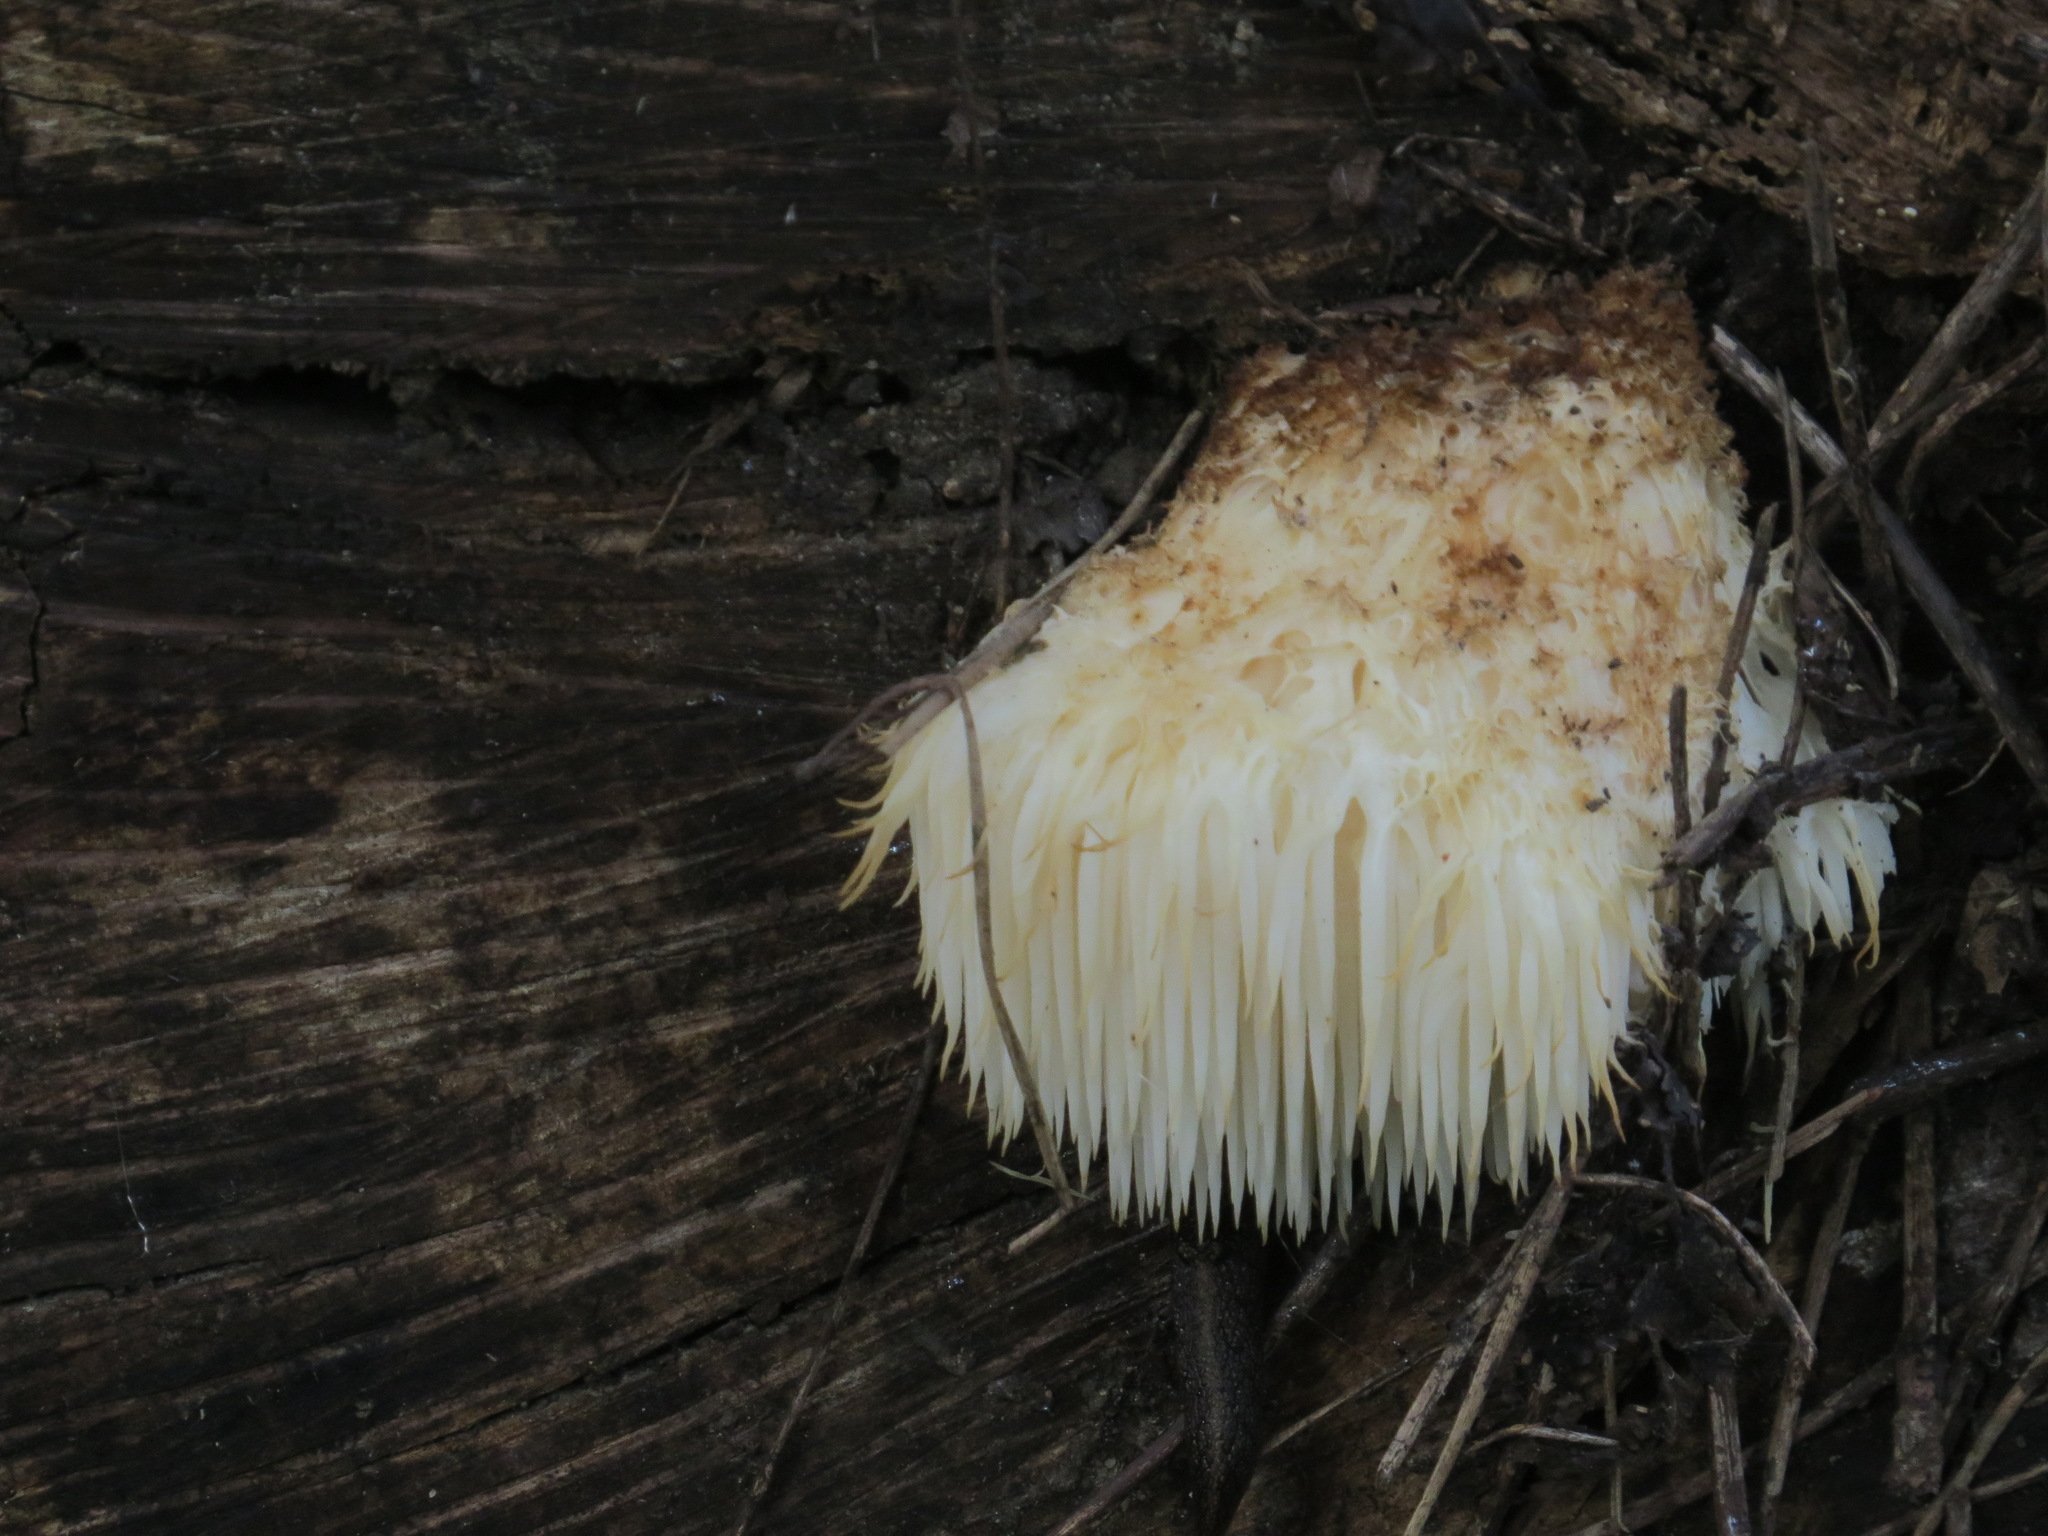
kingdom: Fungi
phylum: Basidiomycota
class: Agaricomycetes
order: Russulales
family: Hericiaceae
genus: Hericium
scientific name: Hericium erinaceus
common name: Bearded tooth
